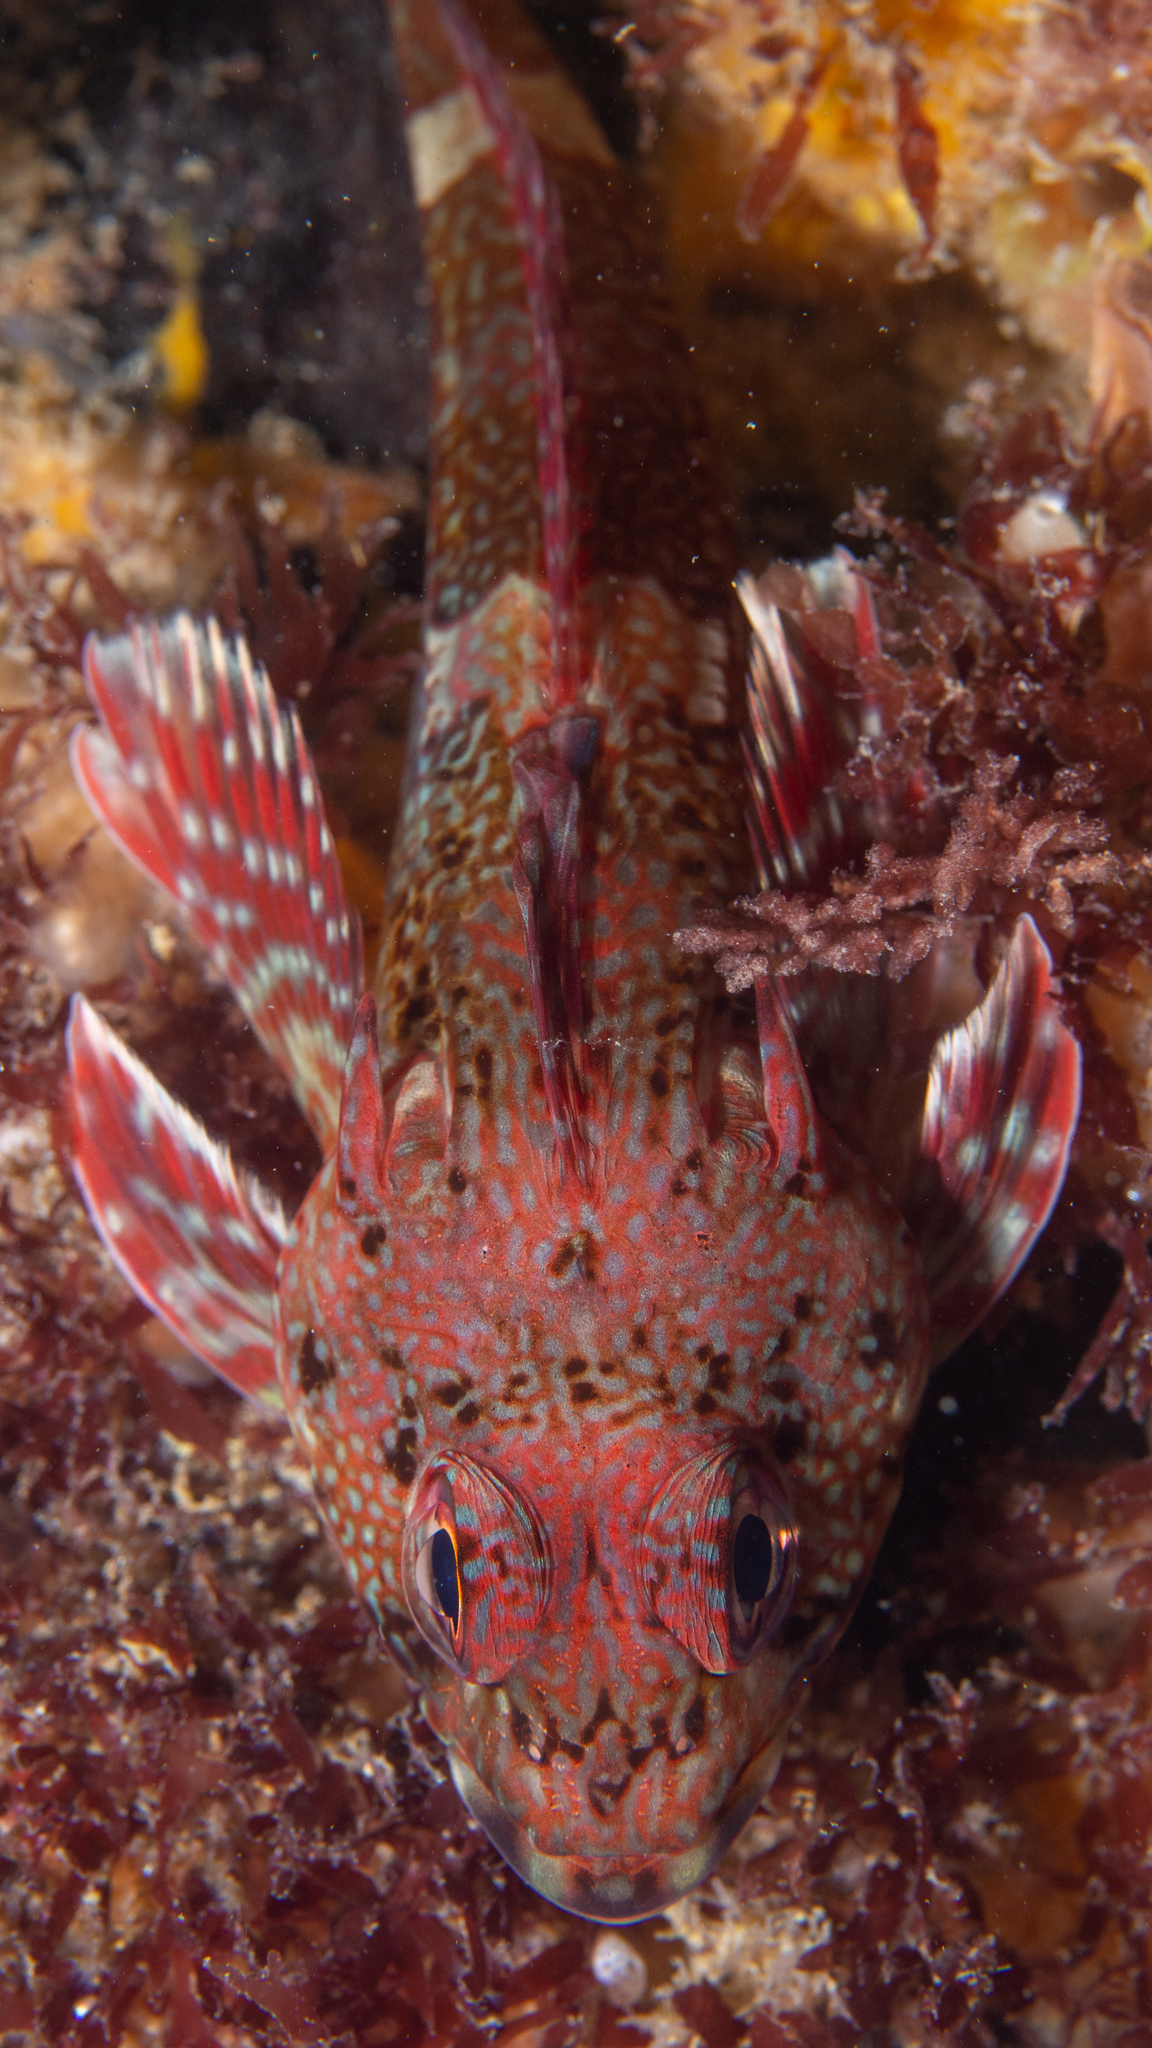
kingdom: Animalia
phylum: Chordata
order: Perciformes
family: Bovichtidae
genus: Bovichtus
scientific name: Bovichtus angustifrons
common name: Dragonet
